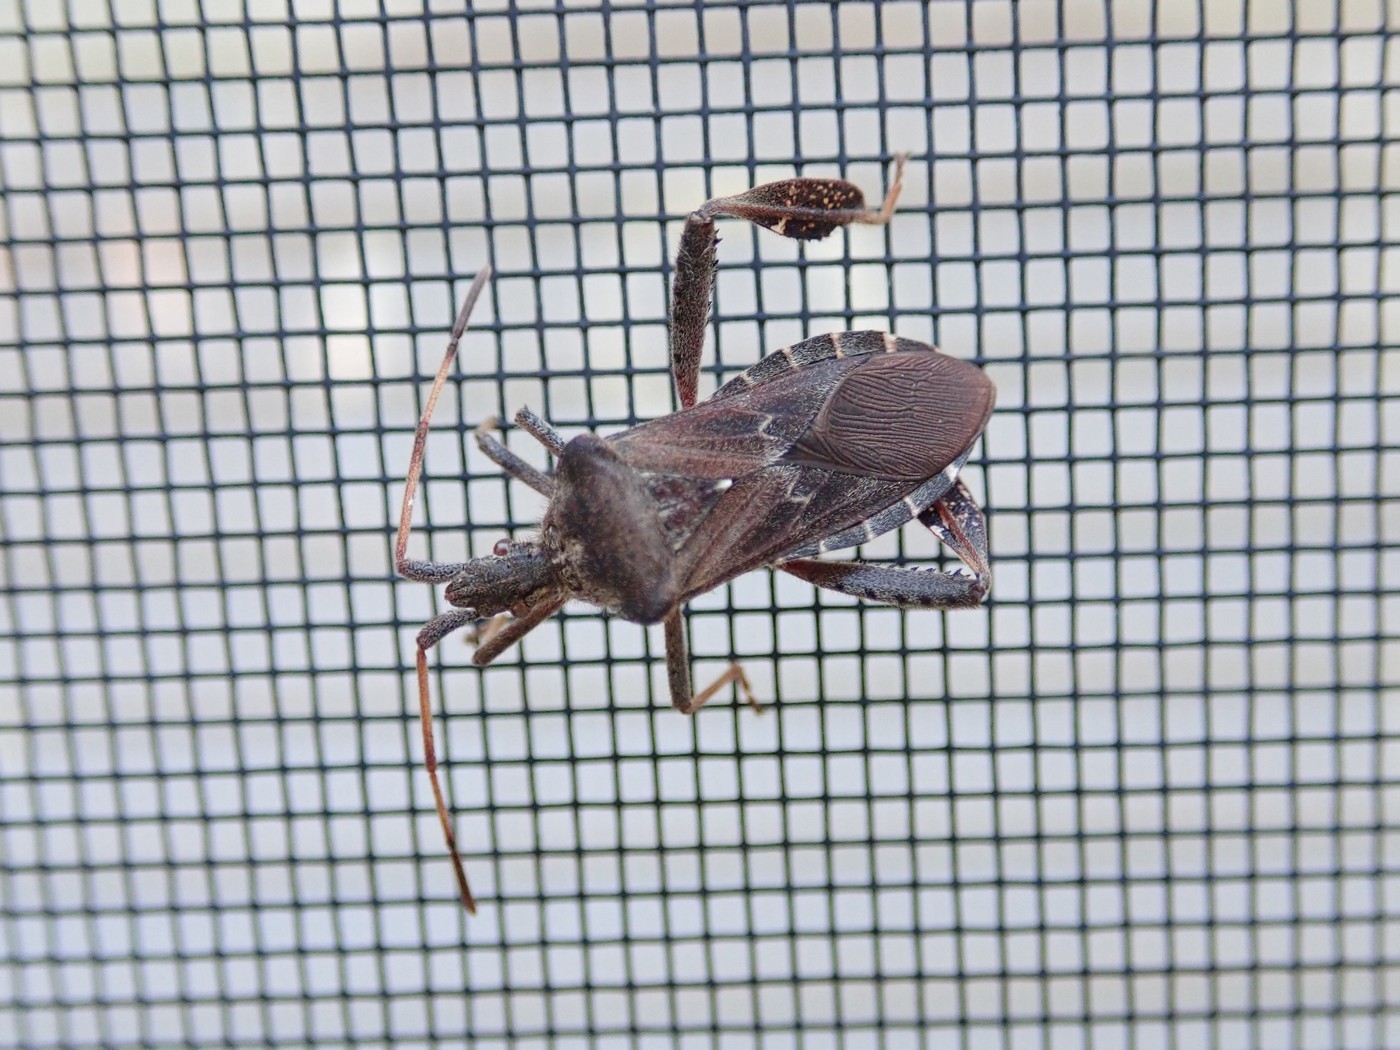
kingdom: Animalia
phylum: Arthropoda
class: Insecta
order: Hemiptera
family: Coreidae
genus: Leptoglossus
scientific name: Leptoglossus corculus
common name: Southern pine seed bug
